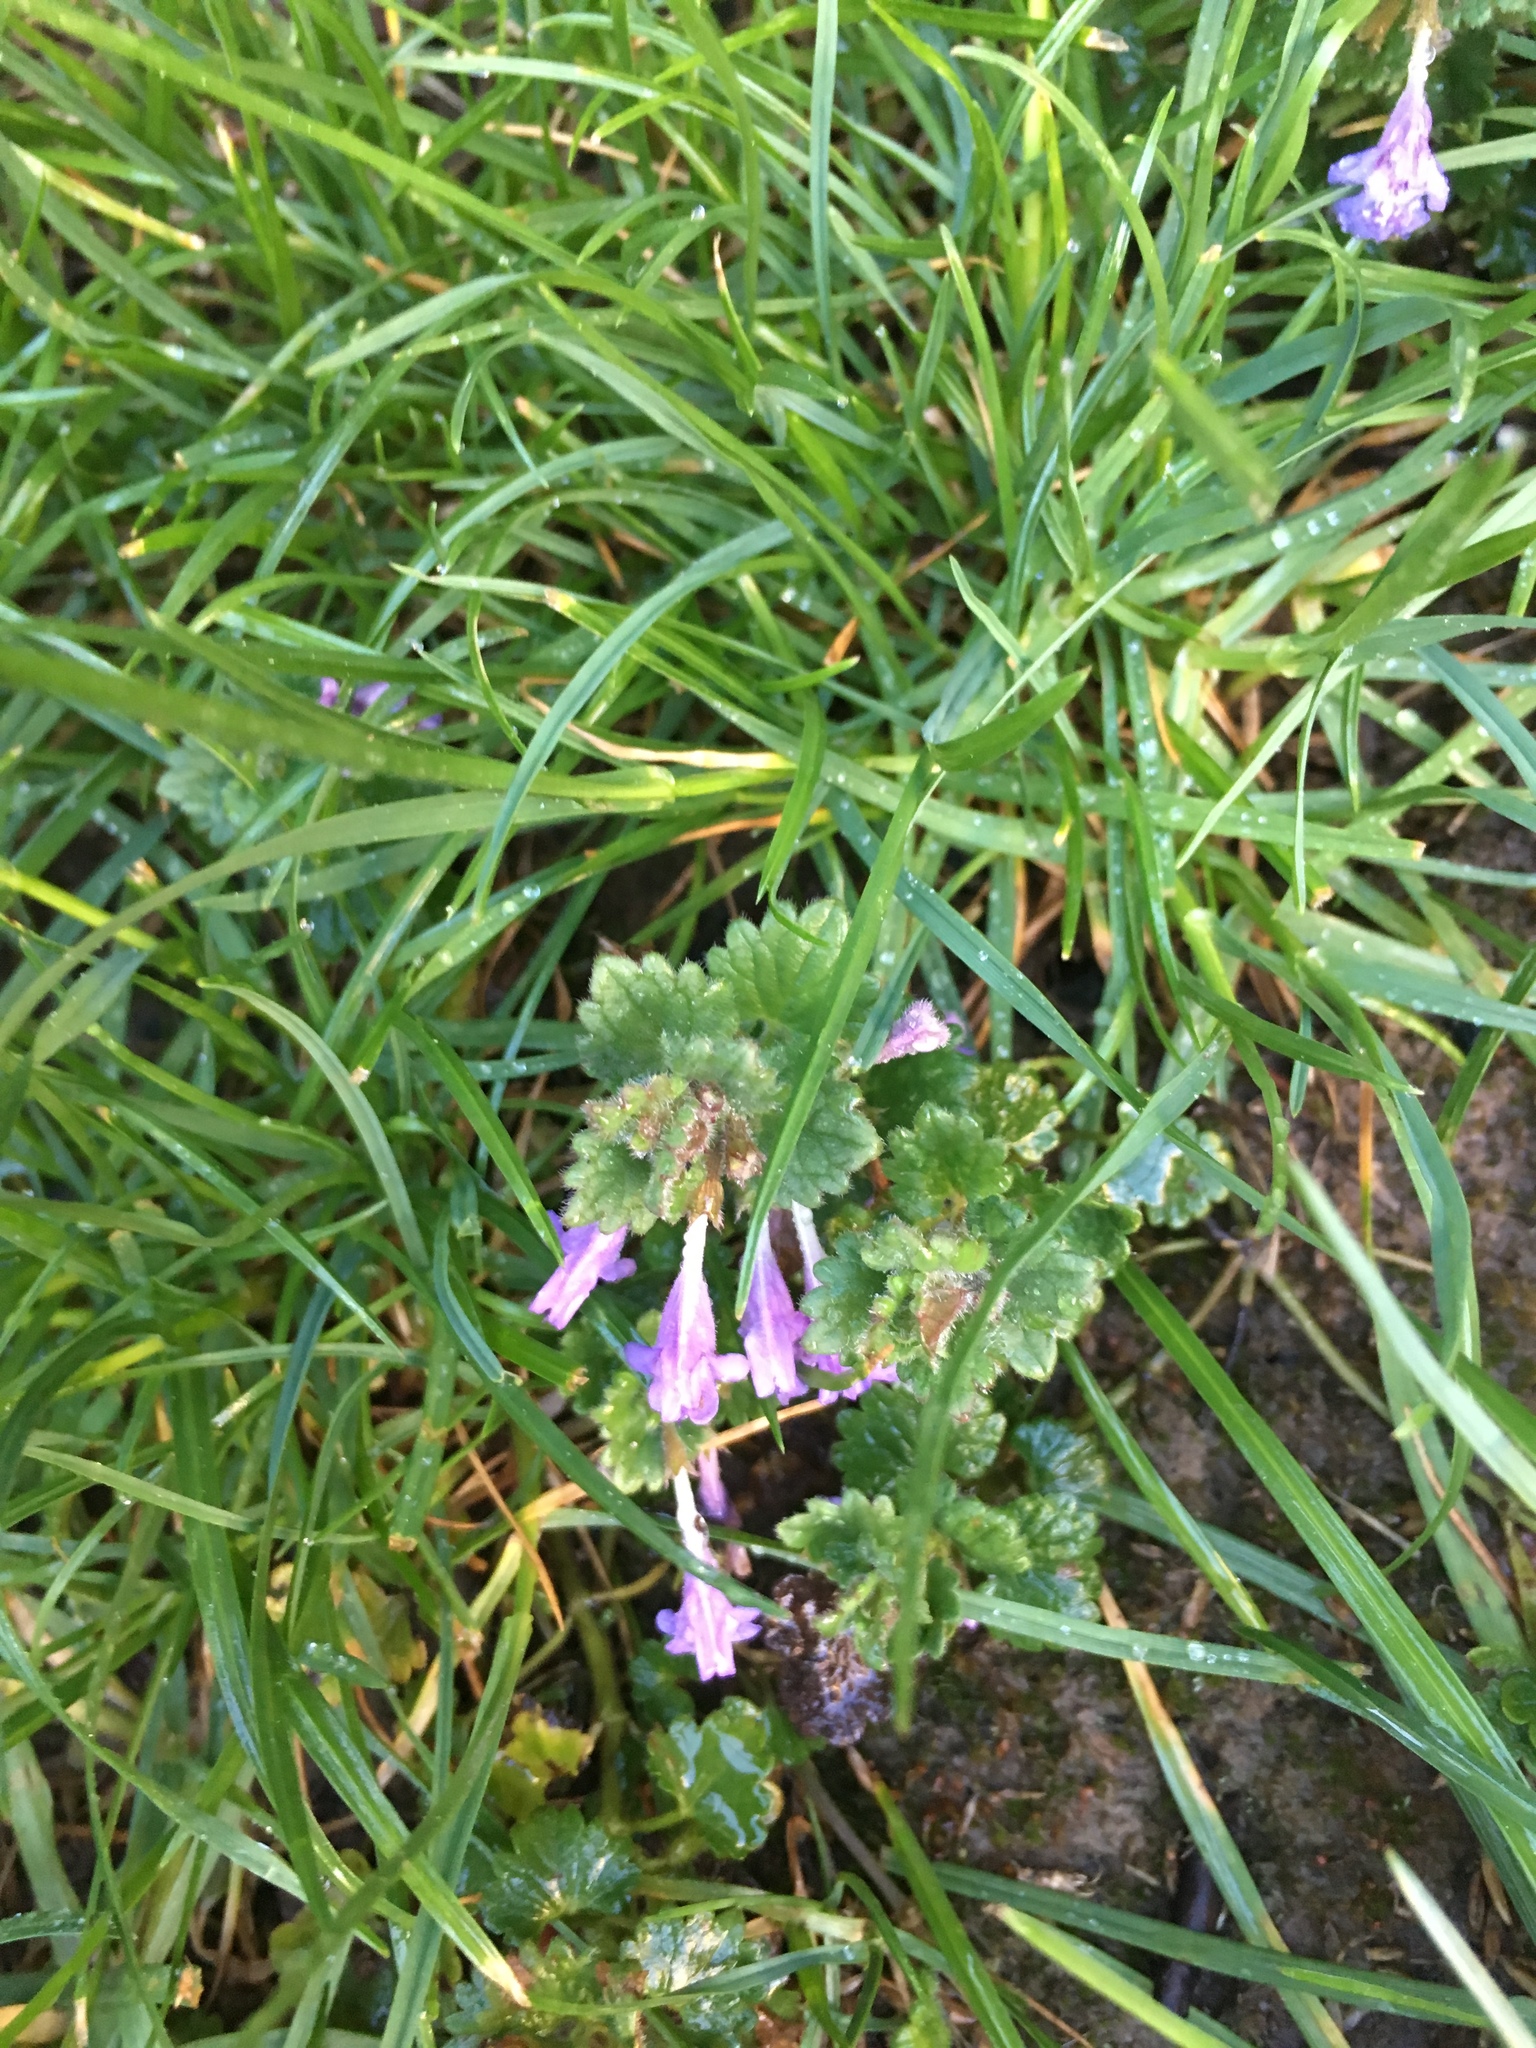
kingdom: Plantae
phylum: Tracheophyta
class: Magnoliopsida
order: Lamiales
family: Lamiaceae
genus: Glechoma
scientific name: Glechoma hederacea
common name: Ground ivy
